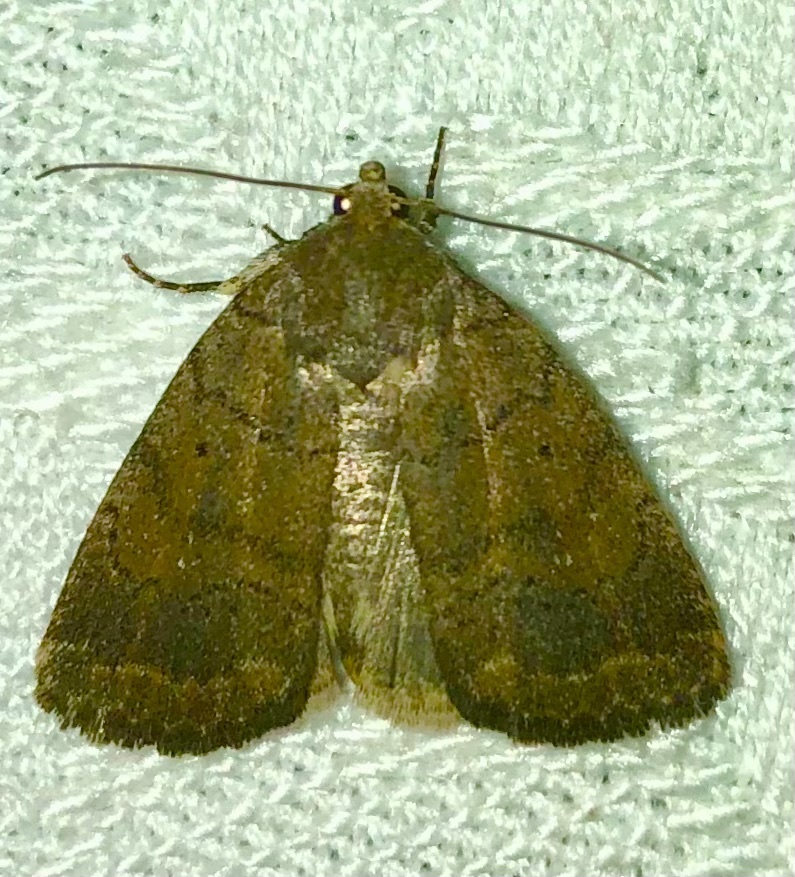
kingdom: Animalia
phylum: Arthropoda
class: Insecta
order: Lepidoptera
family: Noctuidae
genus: Athetis
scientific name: Athetis tarda
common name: Slowpoke moth
